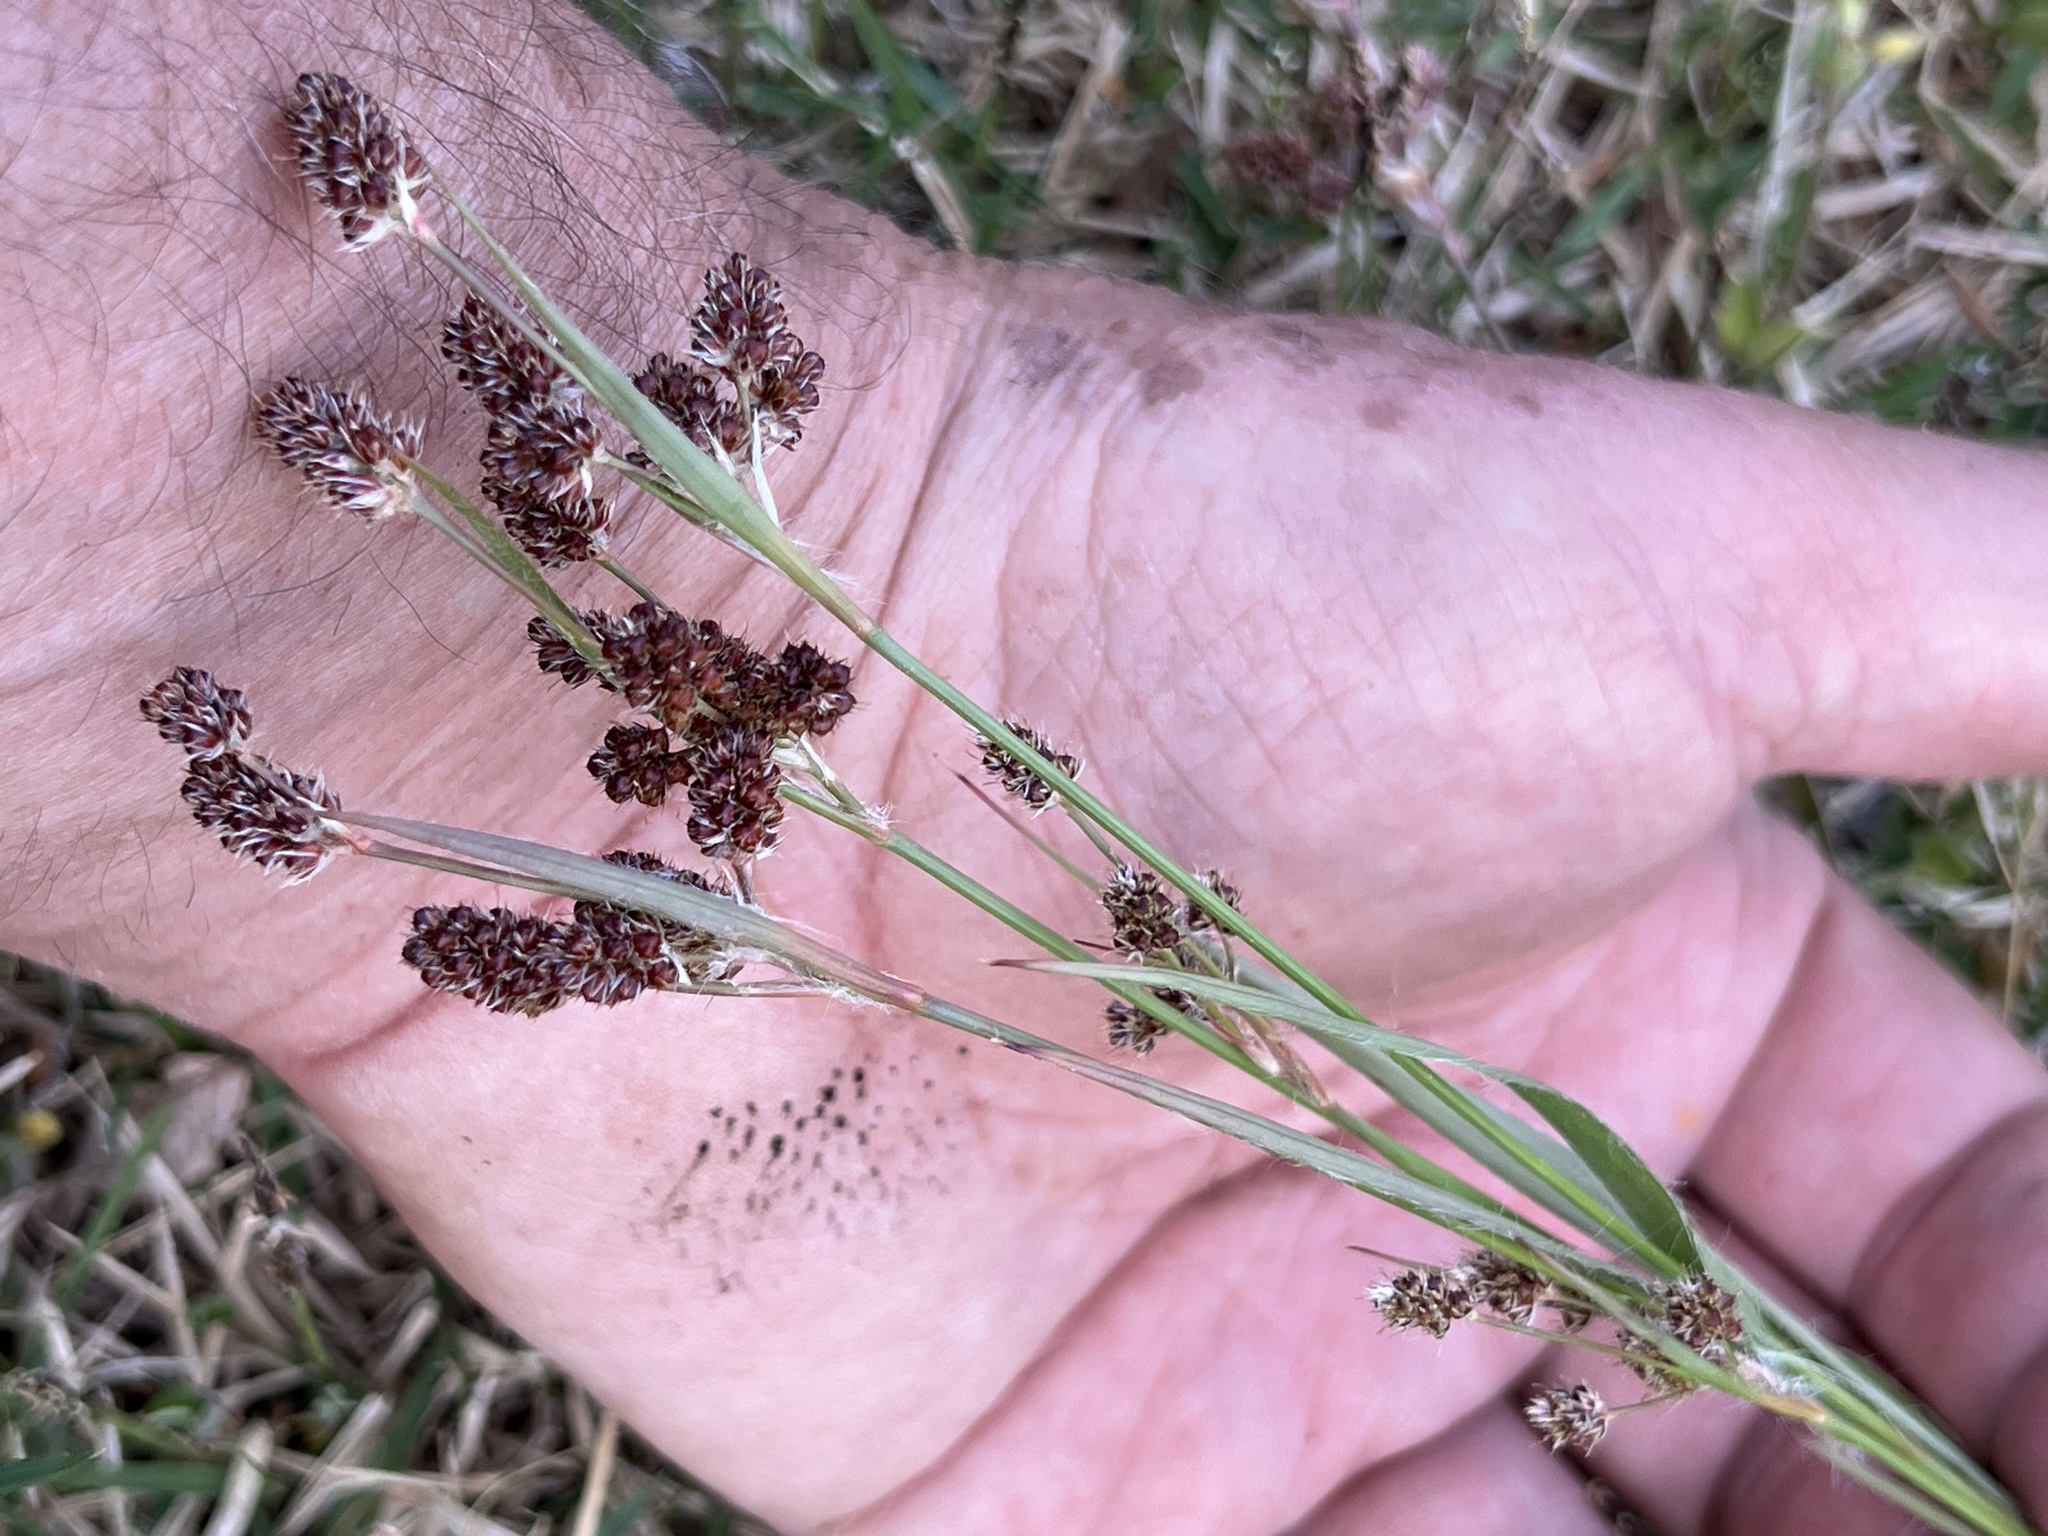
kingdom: Plantae
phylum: Tracheophyta
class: Liliopsida
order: Poales
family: Juncaceae
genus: Luzula
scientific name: Luzula multiflora
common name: Heath wood-rush
